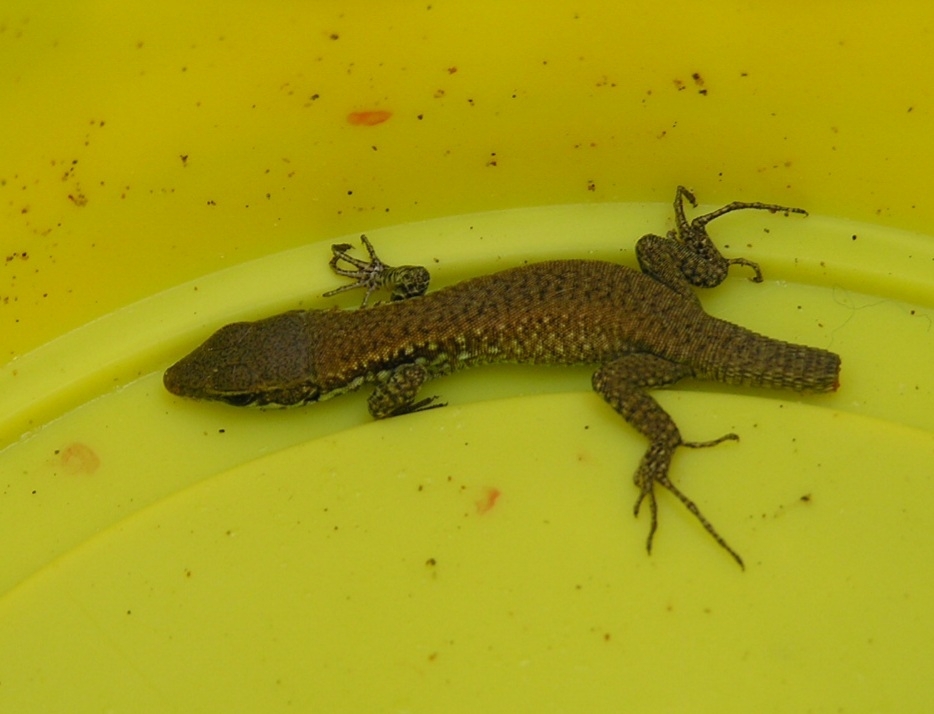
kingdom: Animalia
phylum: Chordata
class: Squamata
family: Lacertidae
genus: Phoenicolacerta
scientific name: Phoenicolacerta laevis
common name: Lebanon lizard
